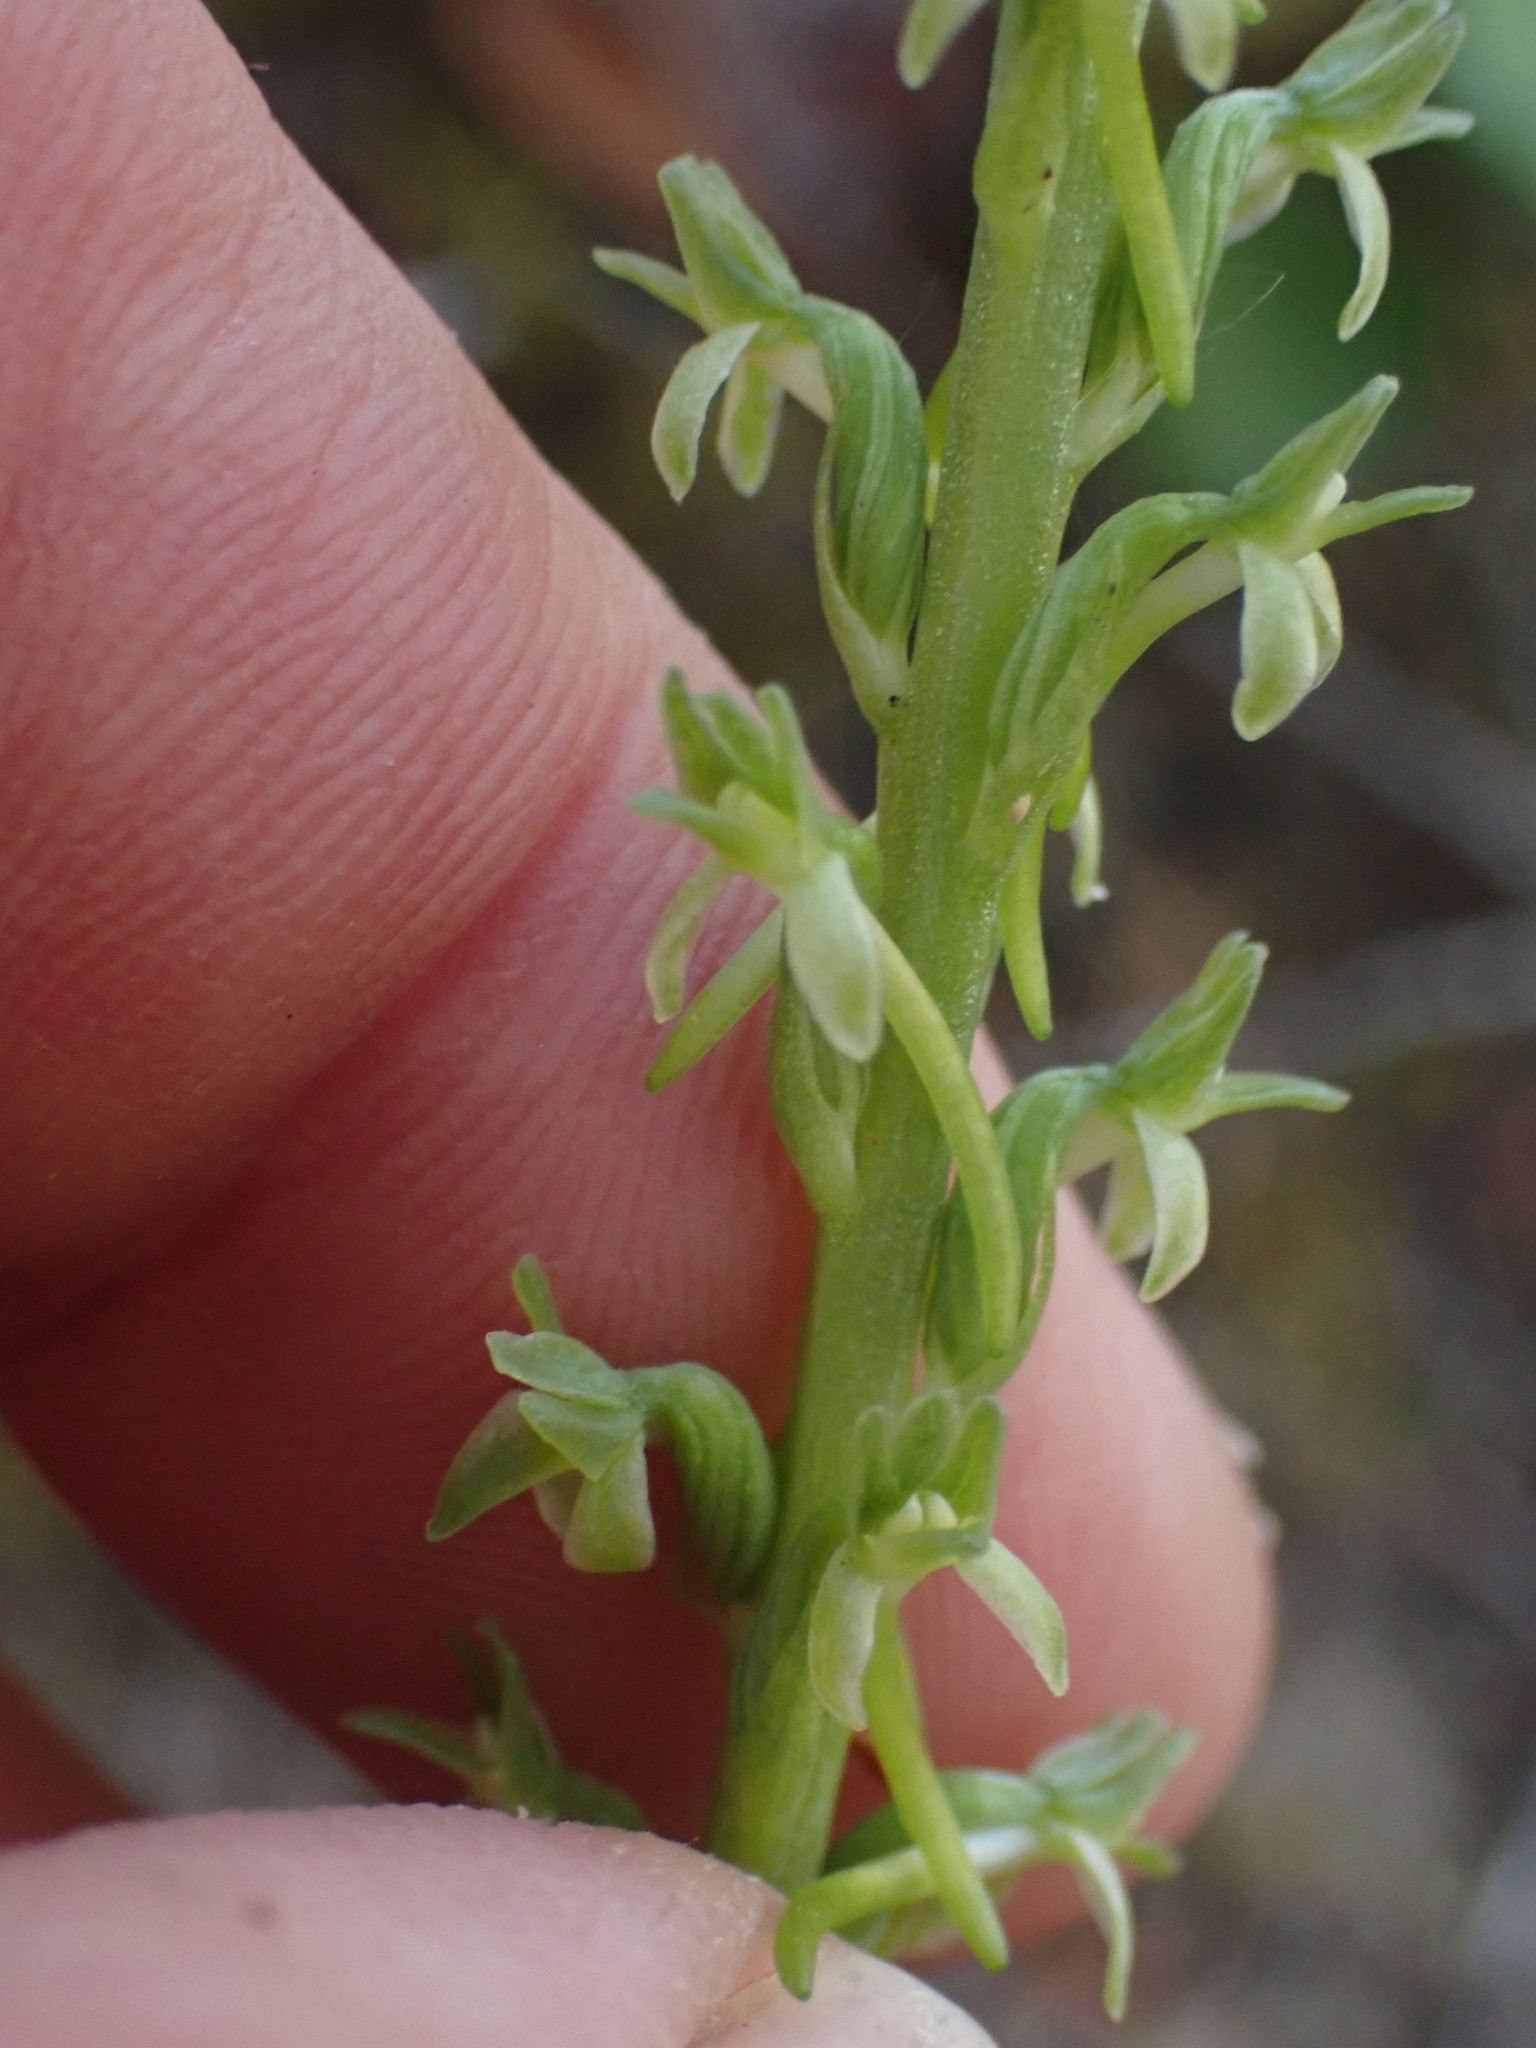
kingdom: Plantae
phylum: Tracheophyta
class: Liliopsida
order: Asparagales
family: Orchidaceae
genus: Platanthera
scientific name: Platanthera elongata
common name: Dense-flowered rein orchid
